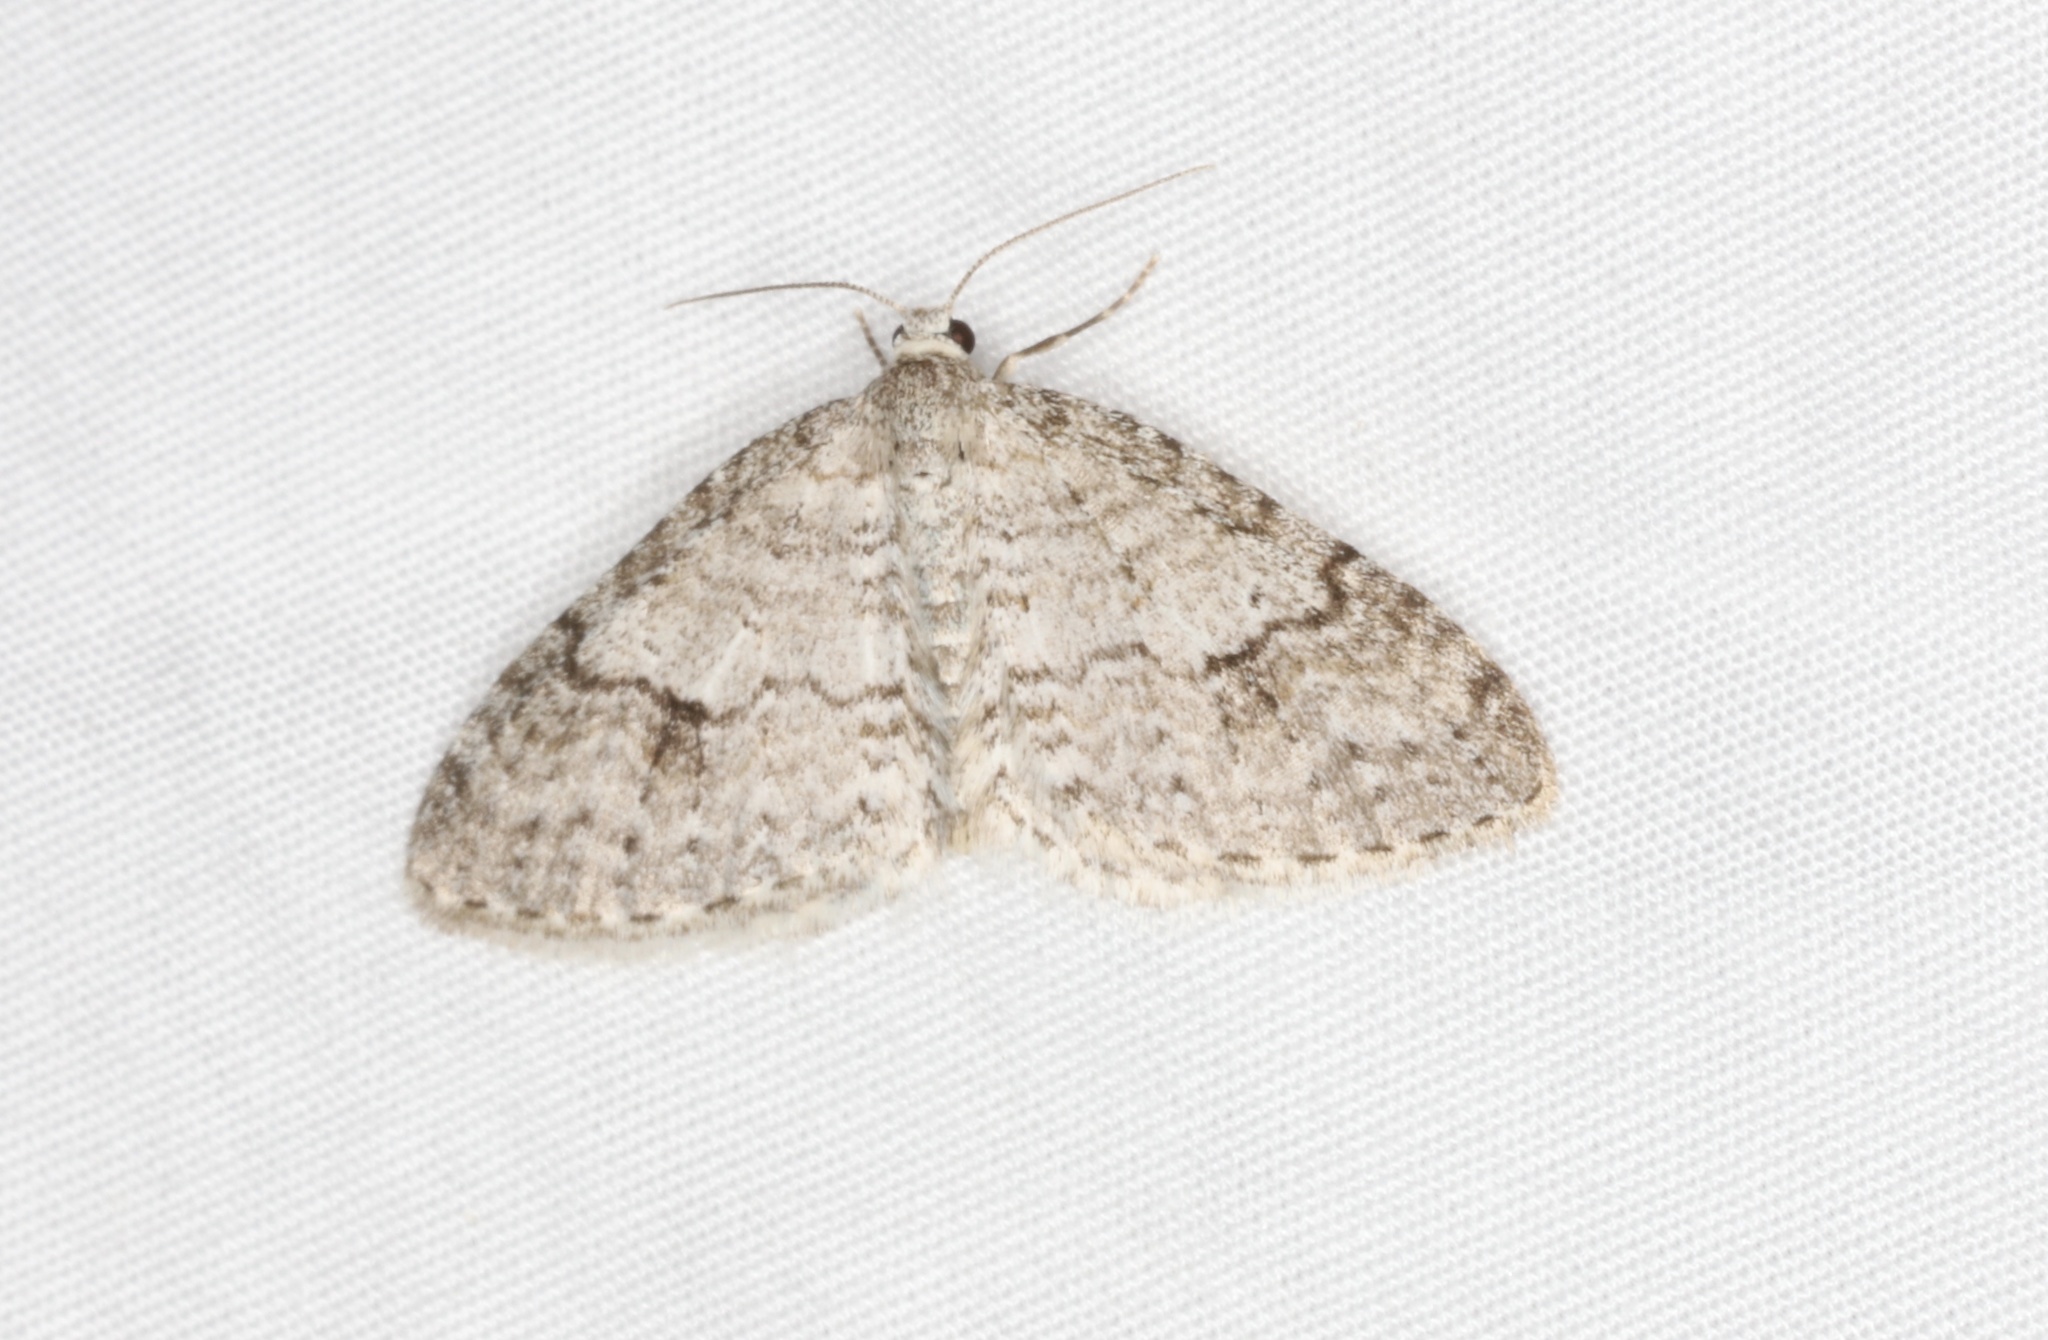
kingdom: Animalia
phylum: Arthropoda
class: Insecta
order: Lepidoptera
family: Geometridae
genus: Venusia
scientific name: Venusia comptaria
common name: Brown-shaded carpet
